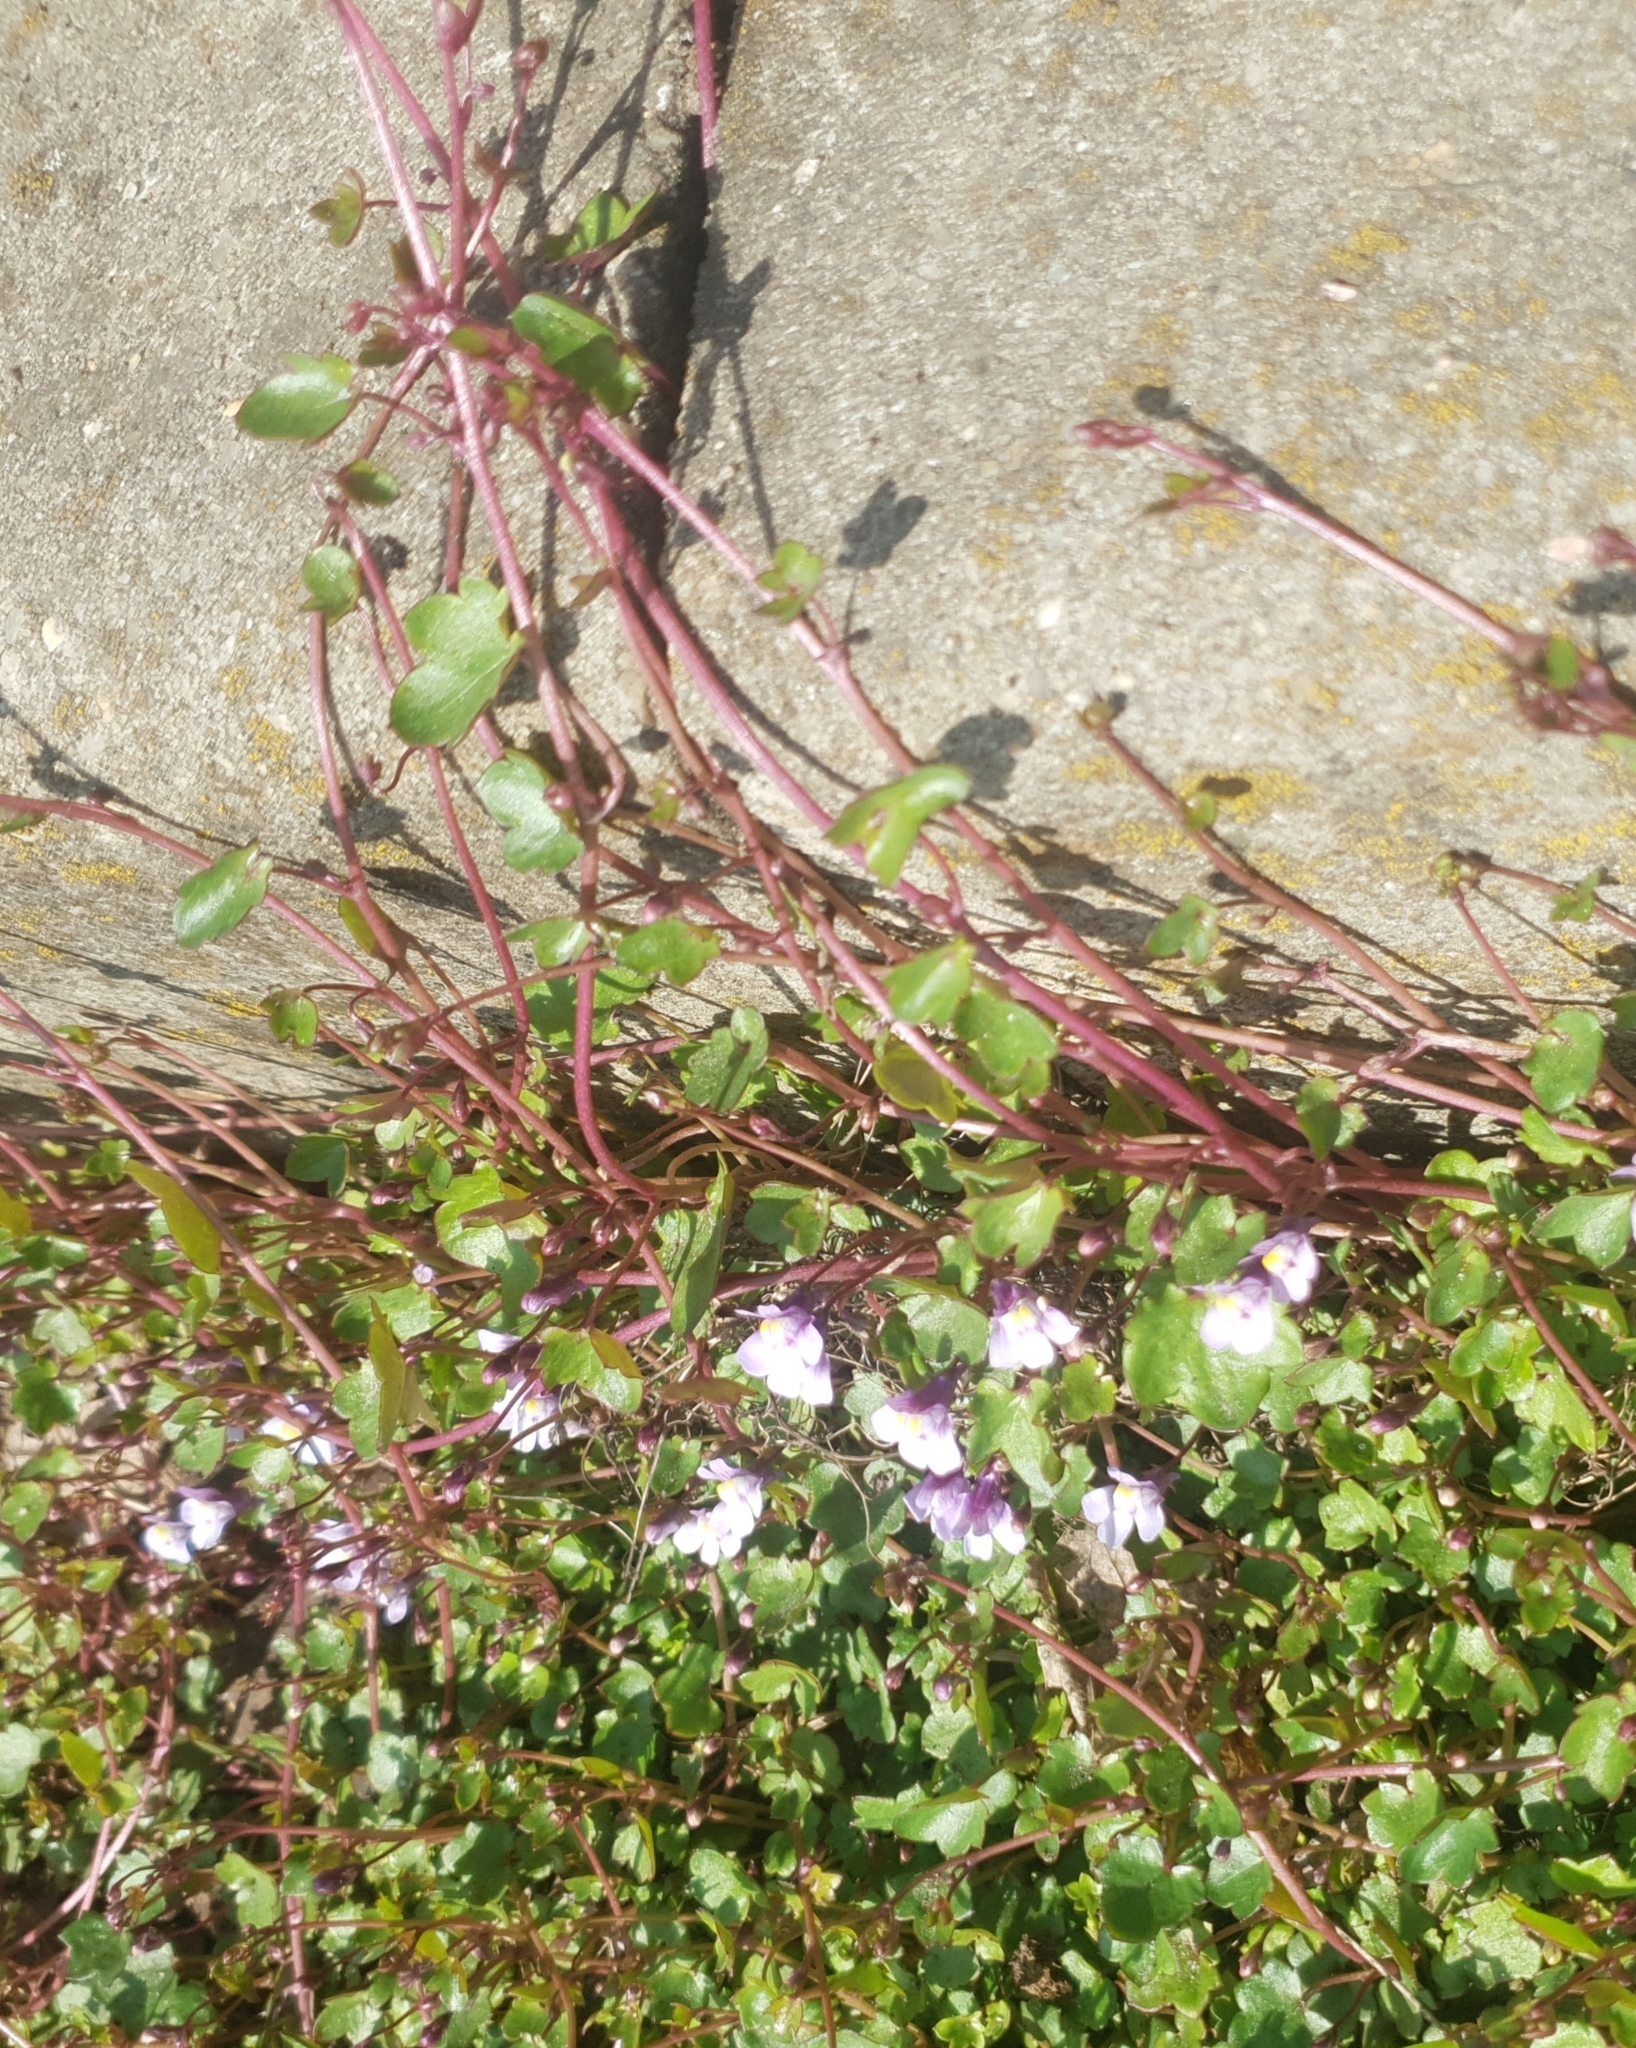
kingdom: Plantae
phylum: Tracheophyta
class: Magnoliopsida
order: Lamiales
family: Plantaginaceae
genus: Cymbalaria
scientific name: Cymbalaria muralis
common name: Ivy-leaved toadflax
